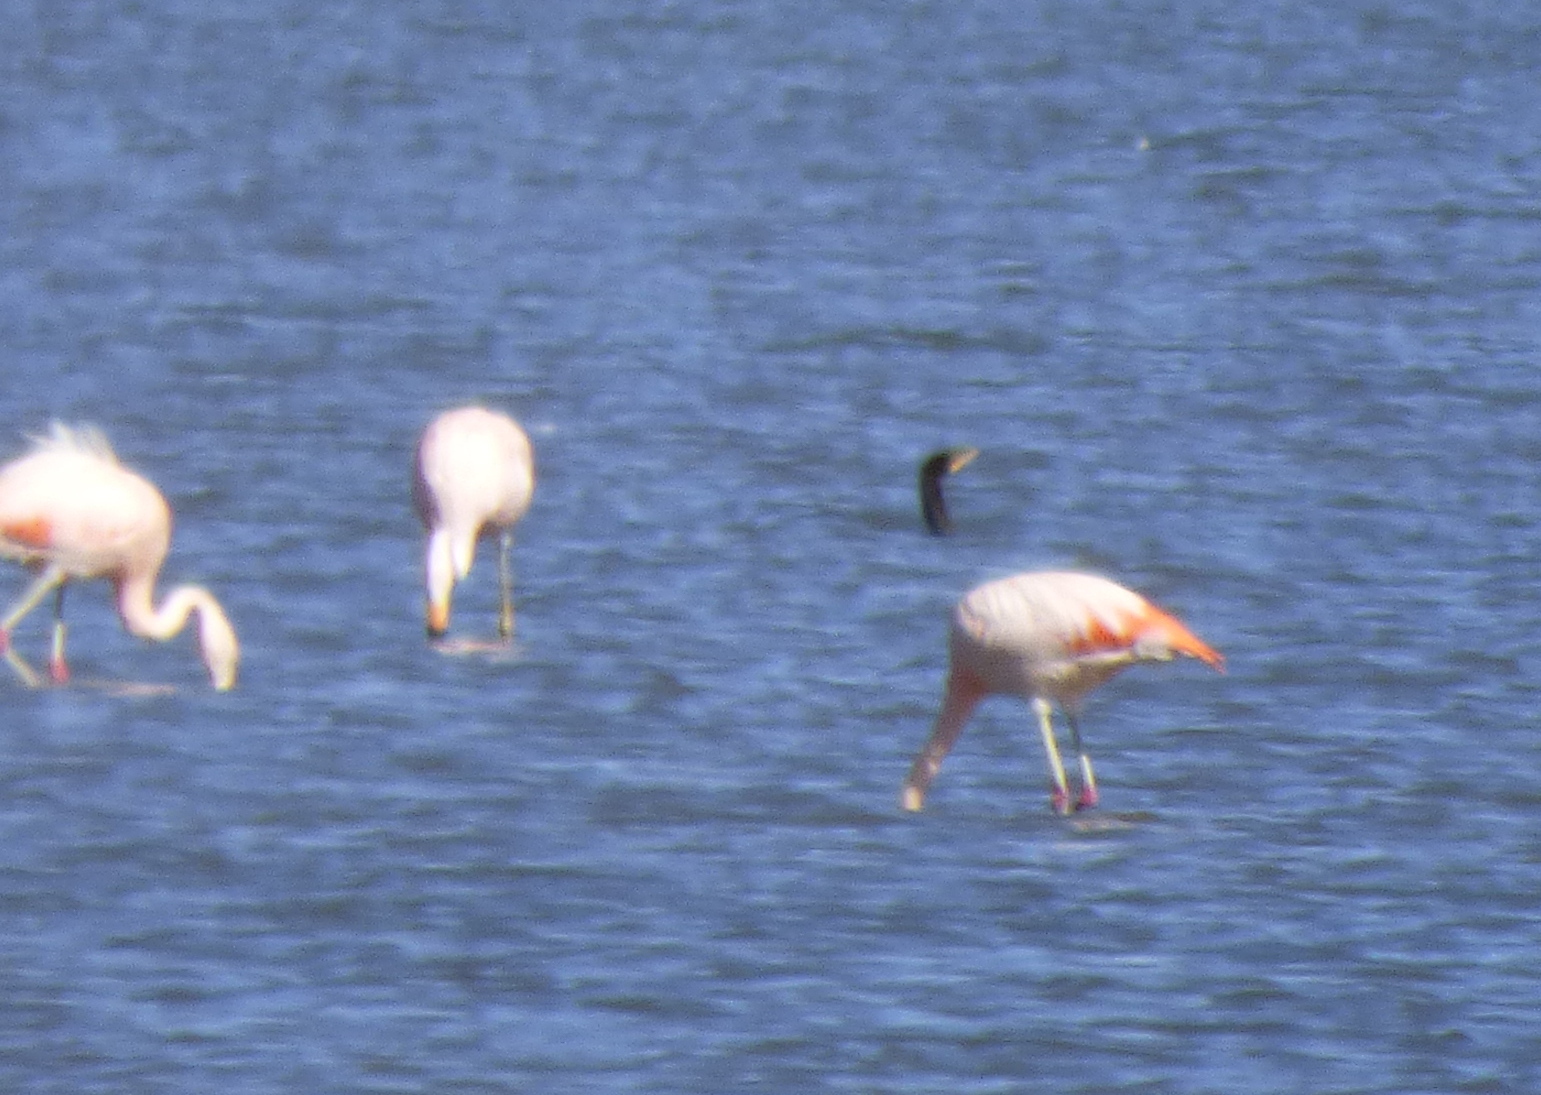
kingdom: Animalia
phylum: Chordata
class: Aves
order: Suliformes
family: Phalacrocoracidae
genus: Phalacrocorax
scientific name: Phalacrocorax brasilianus
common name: Neotropic cormorant
